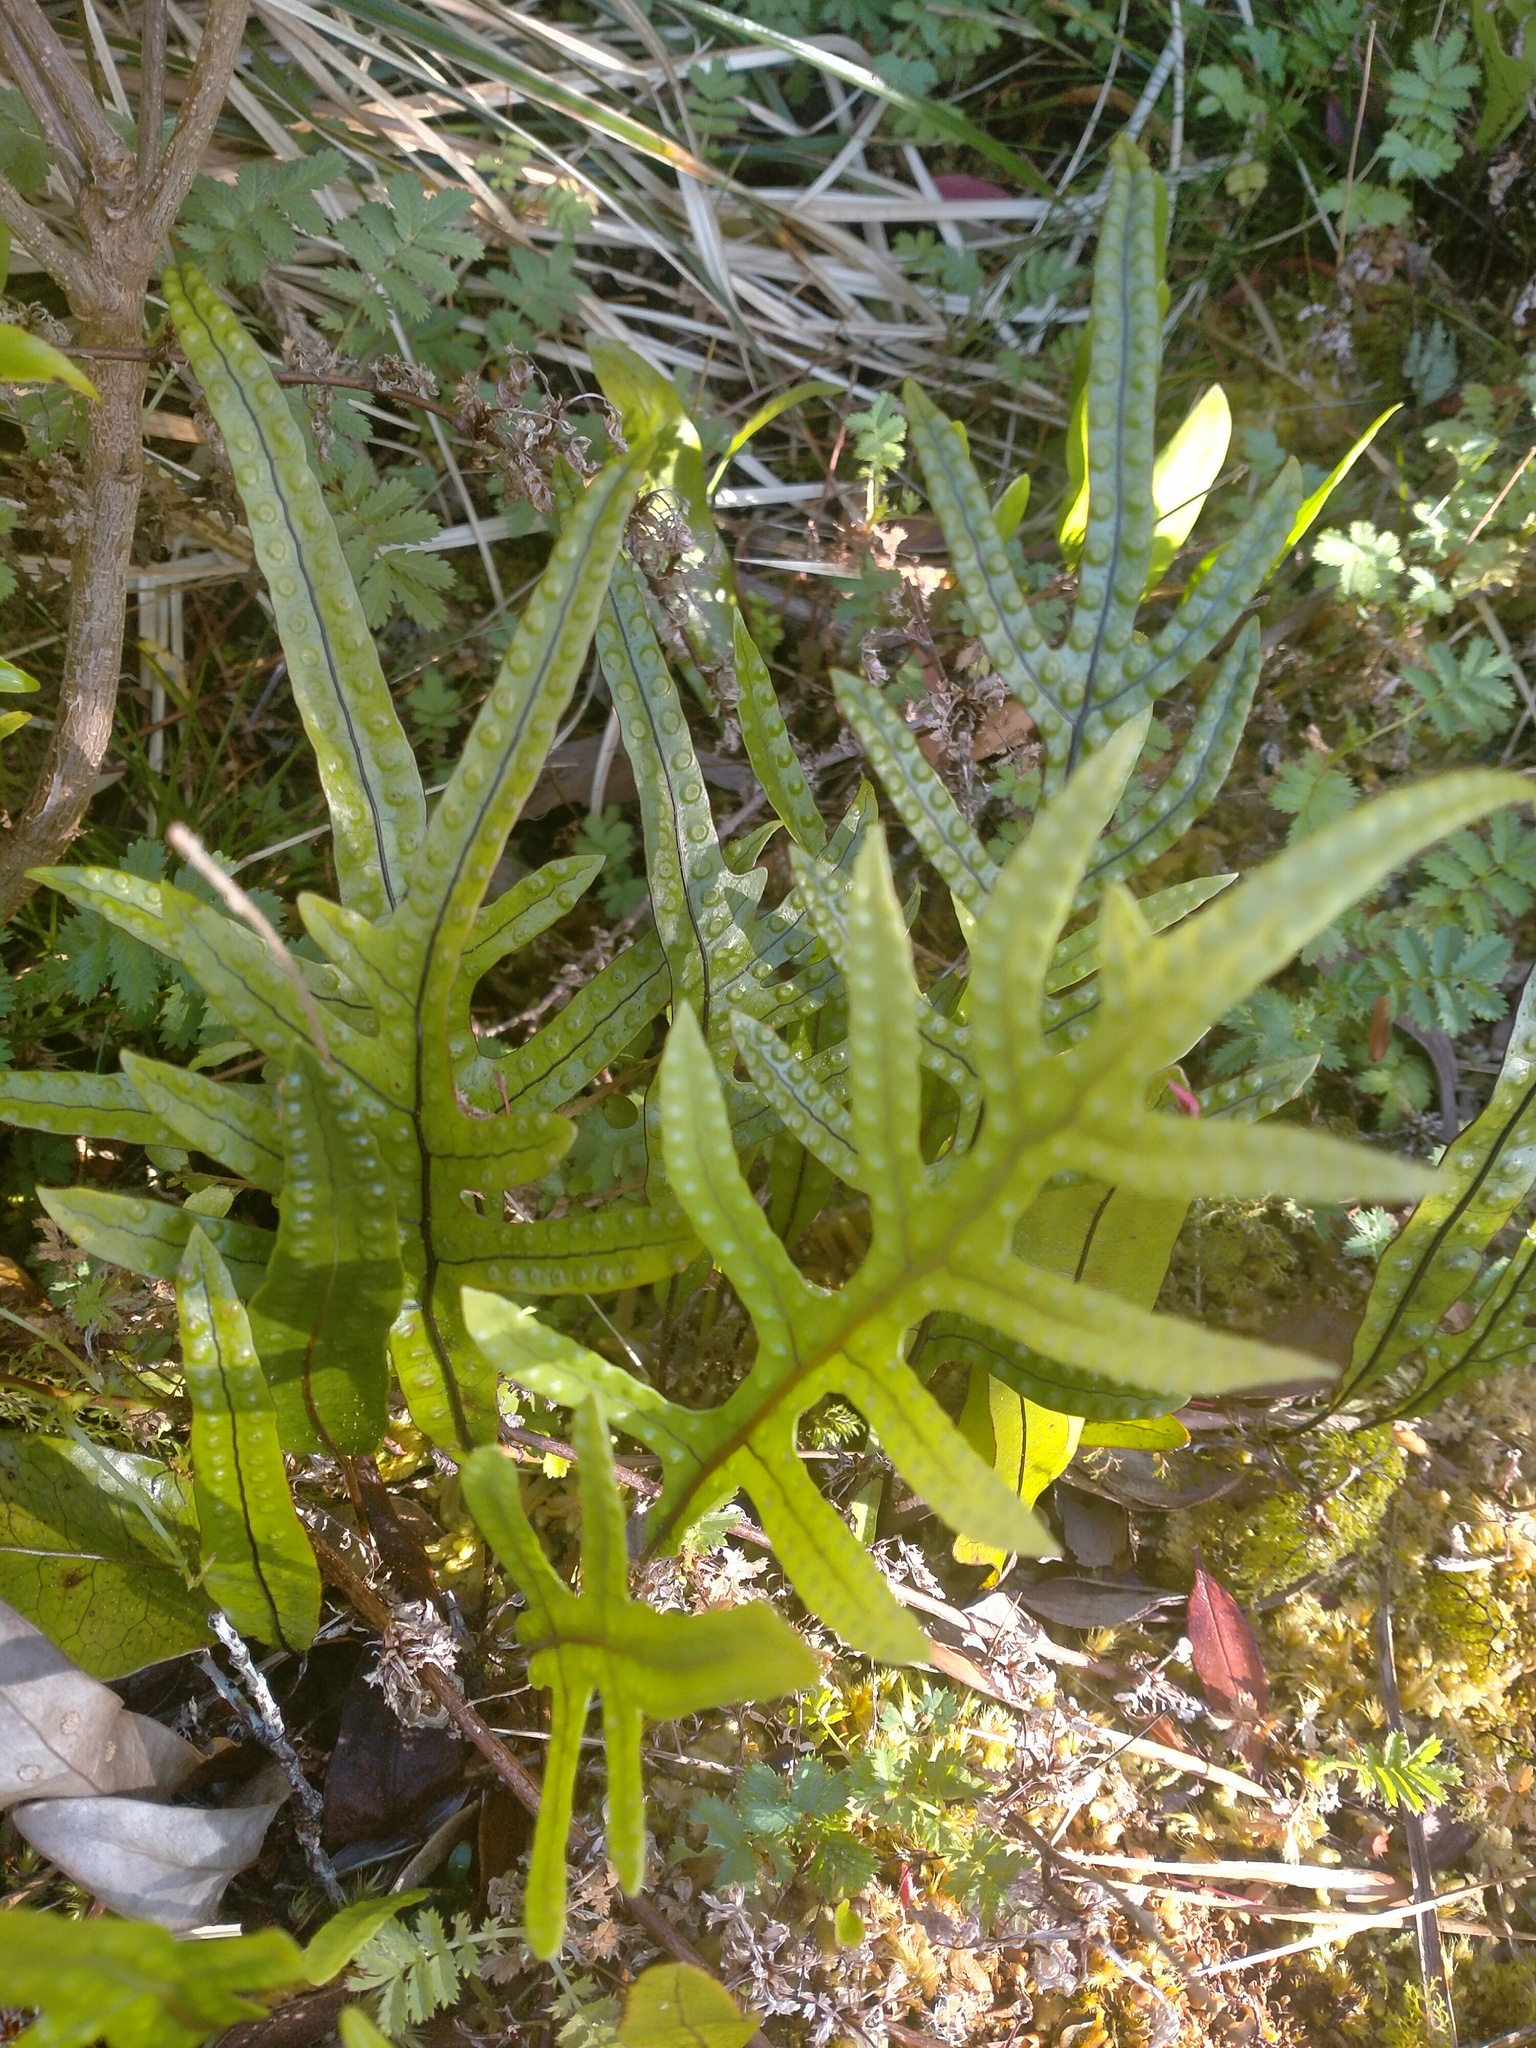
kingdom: Plantae
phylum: Tracheophyta
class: Polypodiopsida
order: Polypodiales
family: Polypodiaceae
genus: Lecanopteris
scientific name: Lecanopteris pustulata
